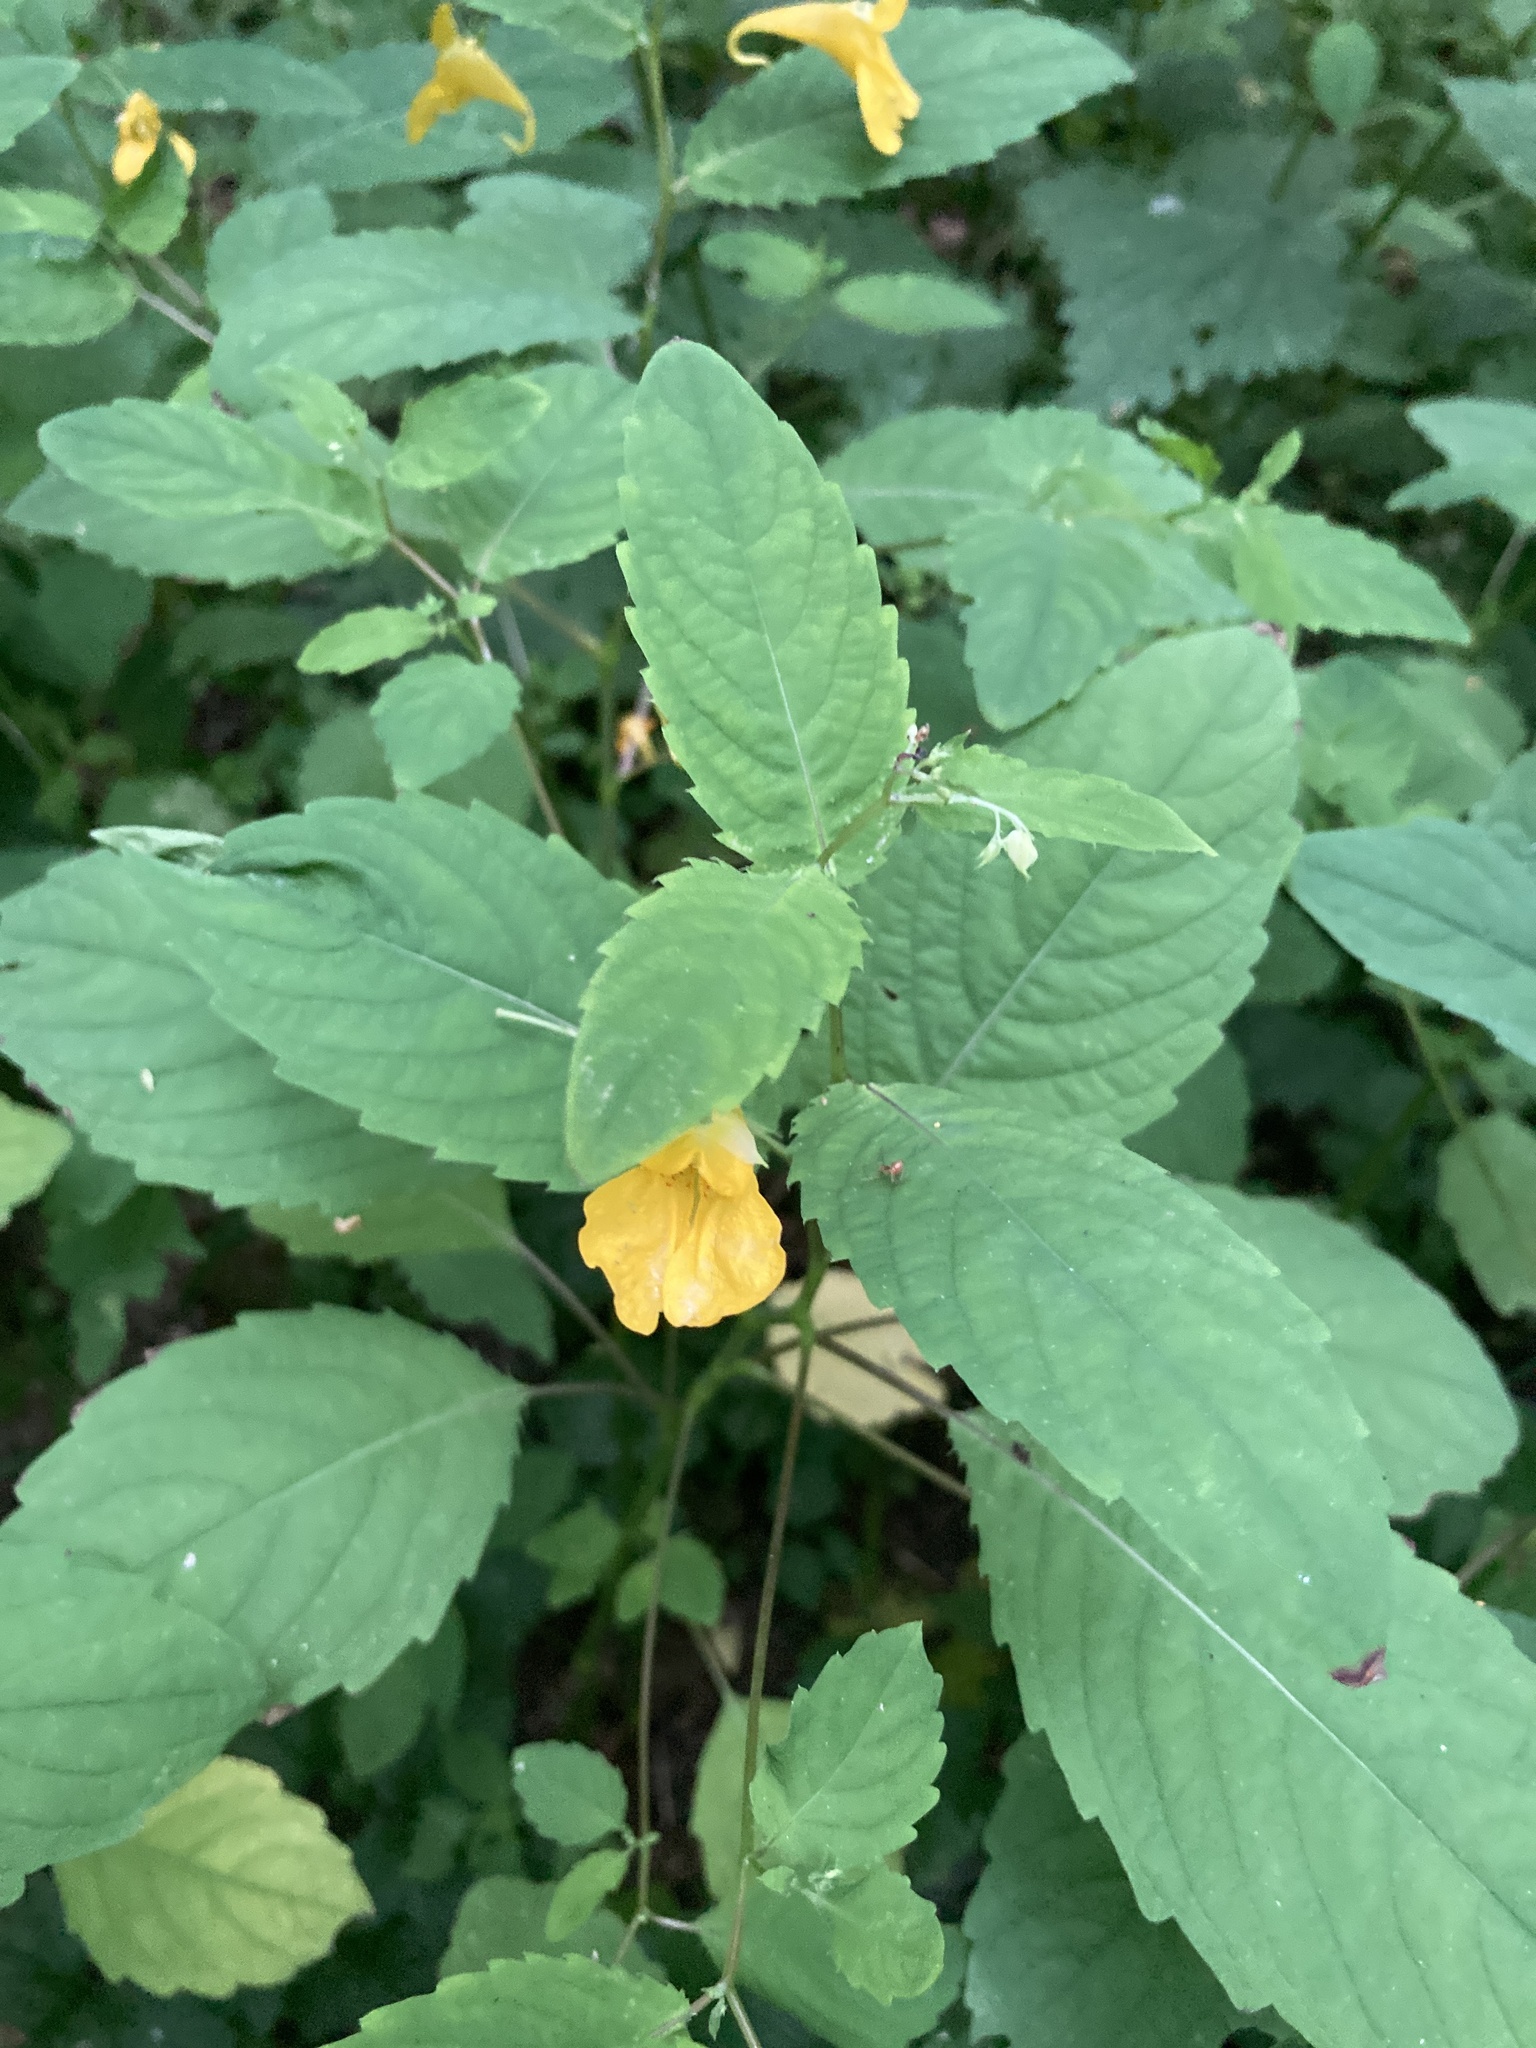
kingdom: Plantae
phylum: Tracheophyta
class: Magnoliopsida
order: Ericales
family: Balsaminaceae
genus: Impatiens
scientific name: Impatiens noli-tangere
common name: Touch-me-not balsam
